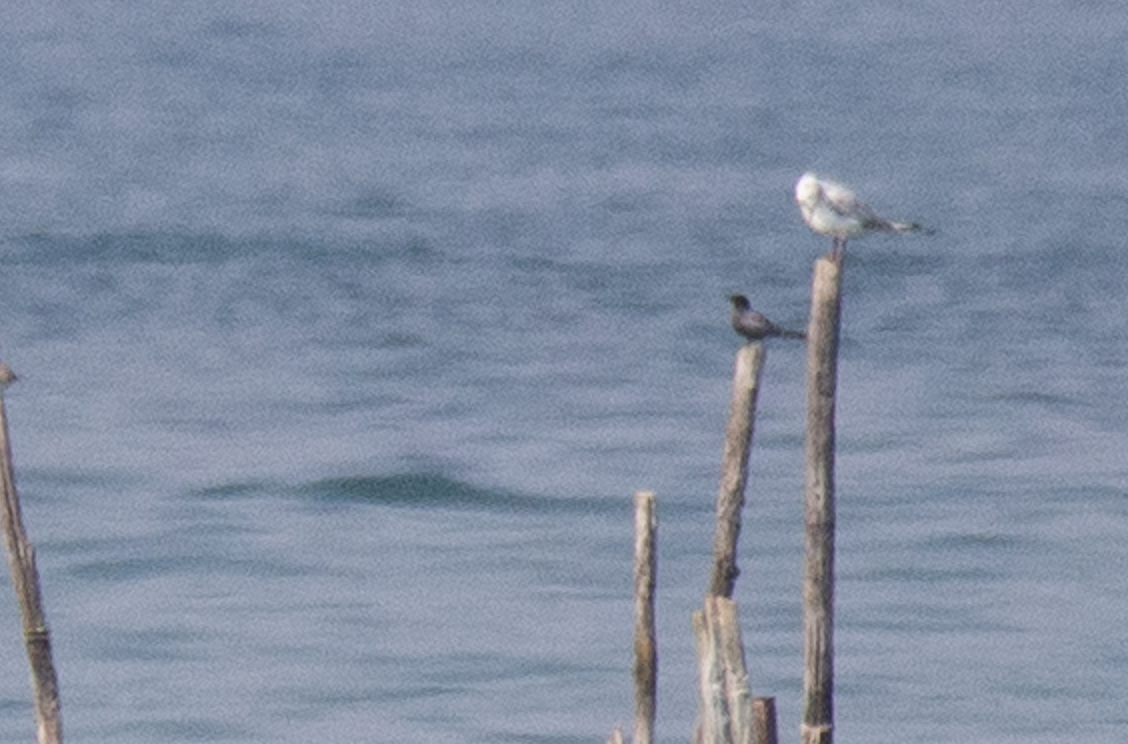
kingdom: Animalia
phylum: Chordata
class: Aves
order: Charadriiformes
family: Laridae
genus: Chlidonias
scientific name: Chlidonias niger
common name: Black tern
